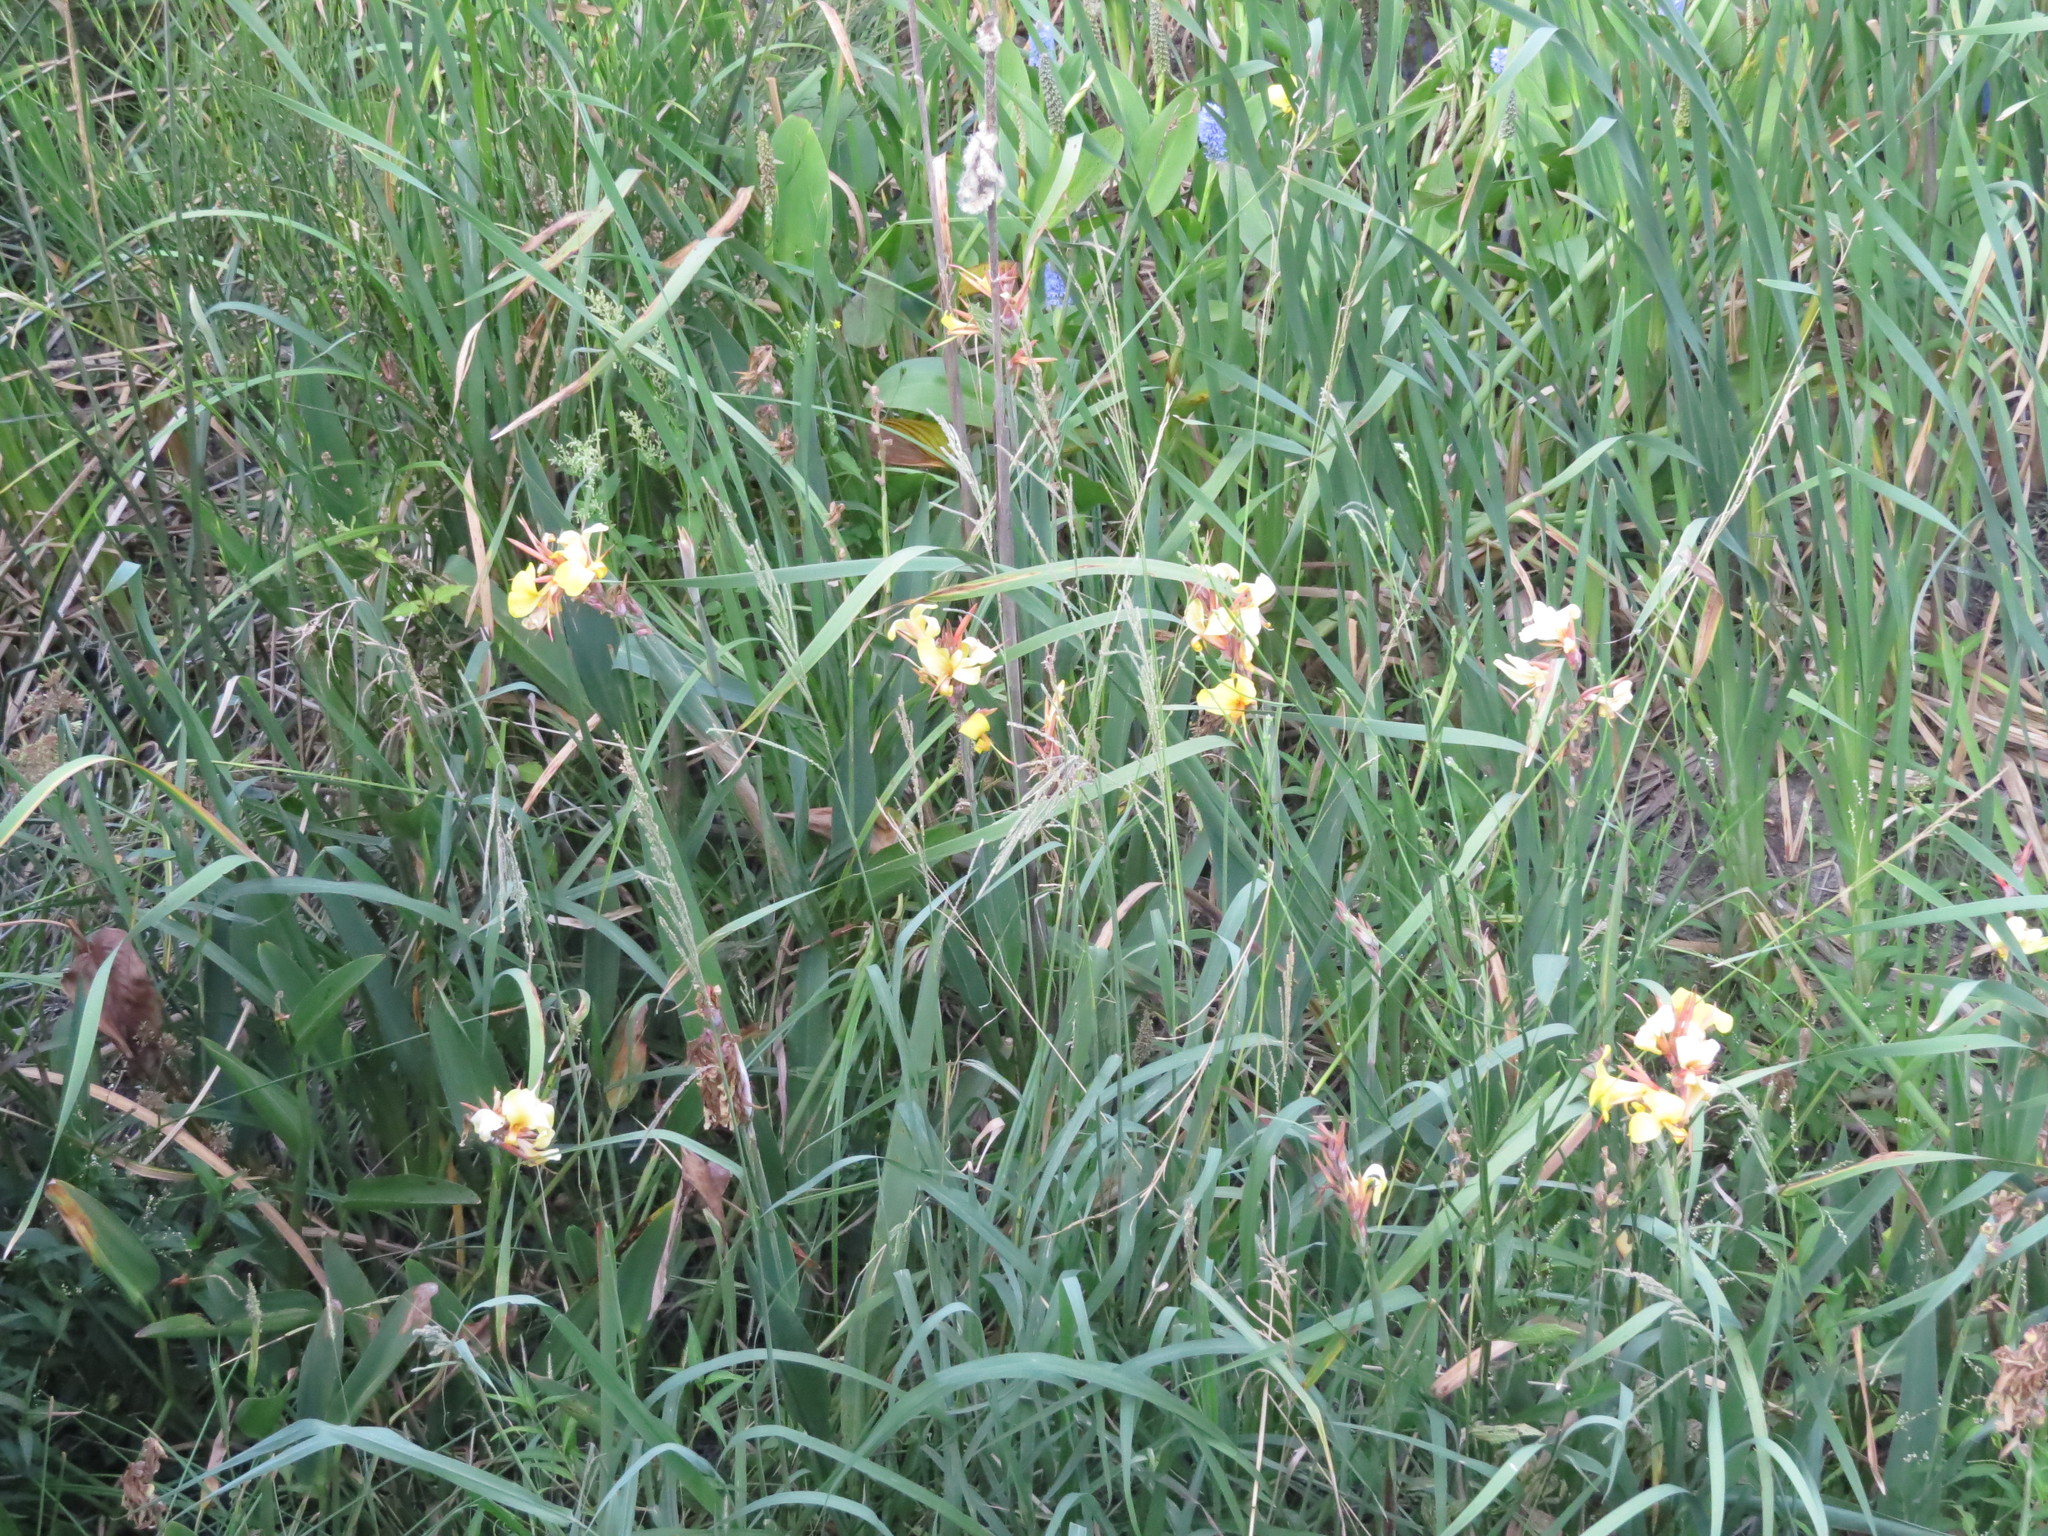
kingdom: Plantae
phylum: Tracheophyta
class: Liliopsida
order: Zingiberales
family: Cannaceae
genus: Canna
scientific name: Canna glauca
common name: Louisiana canna
